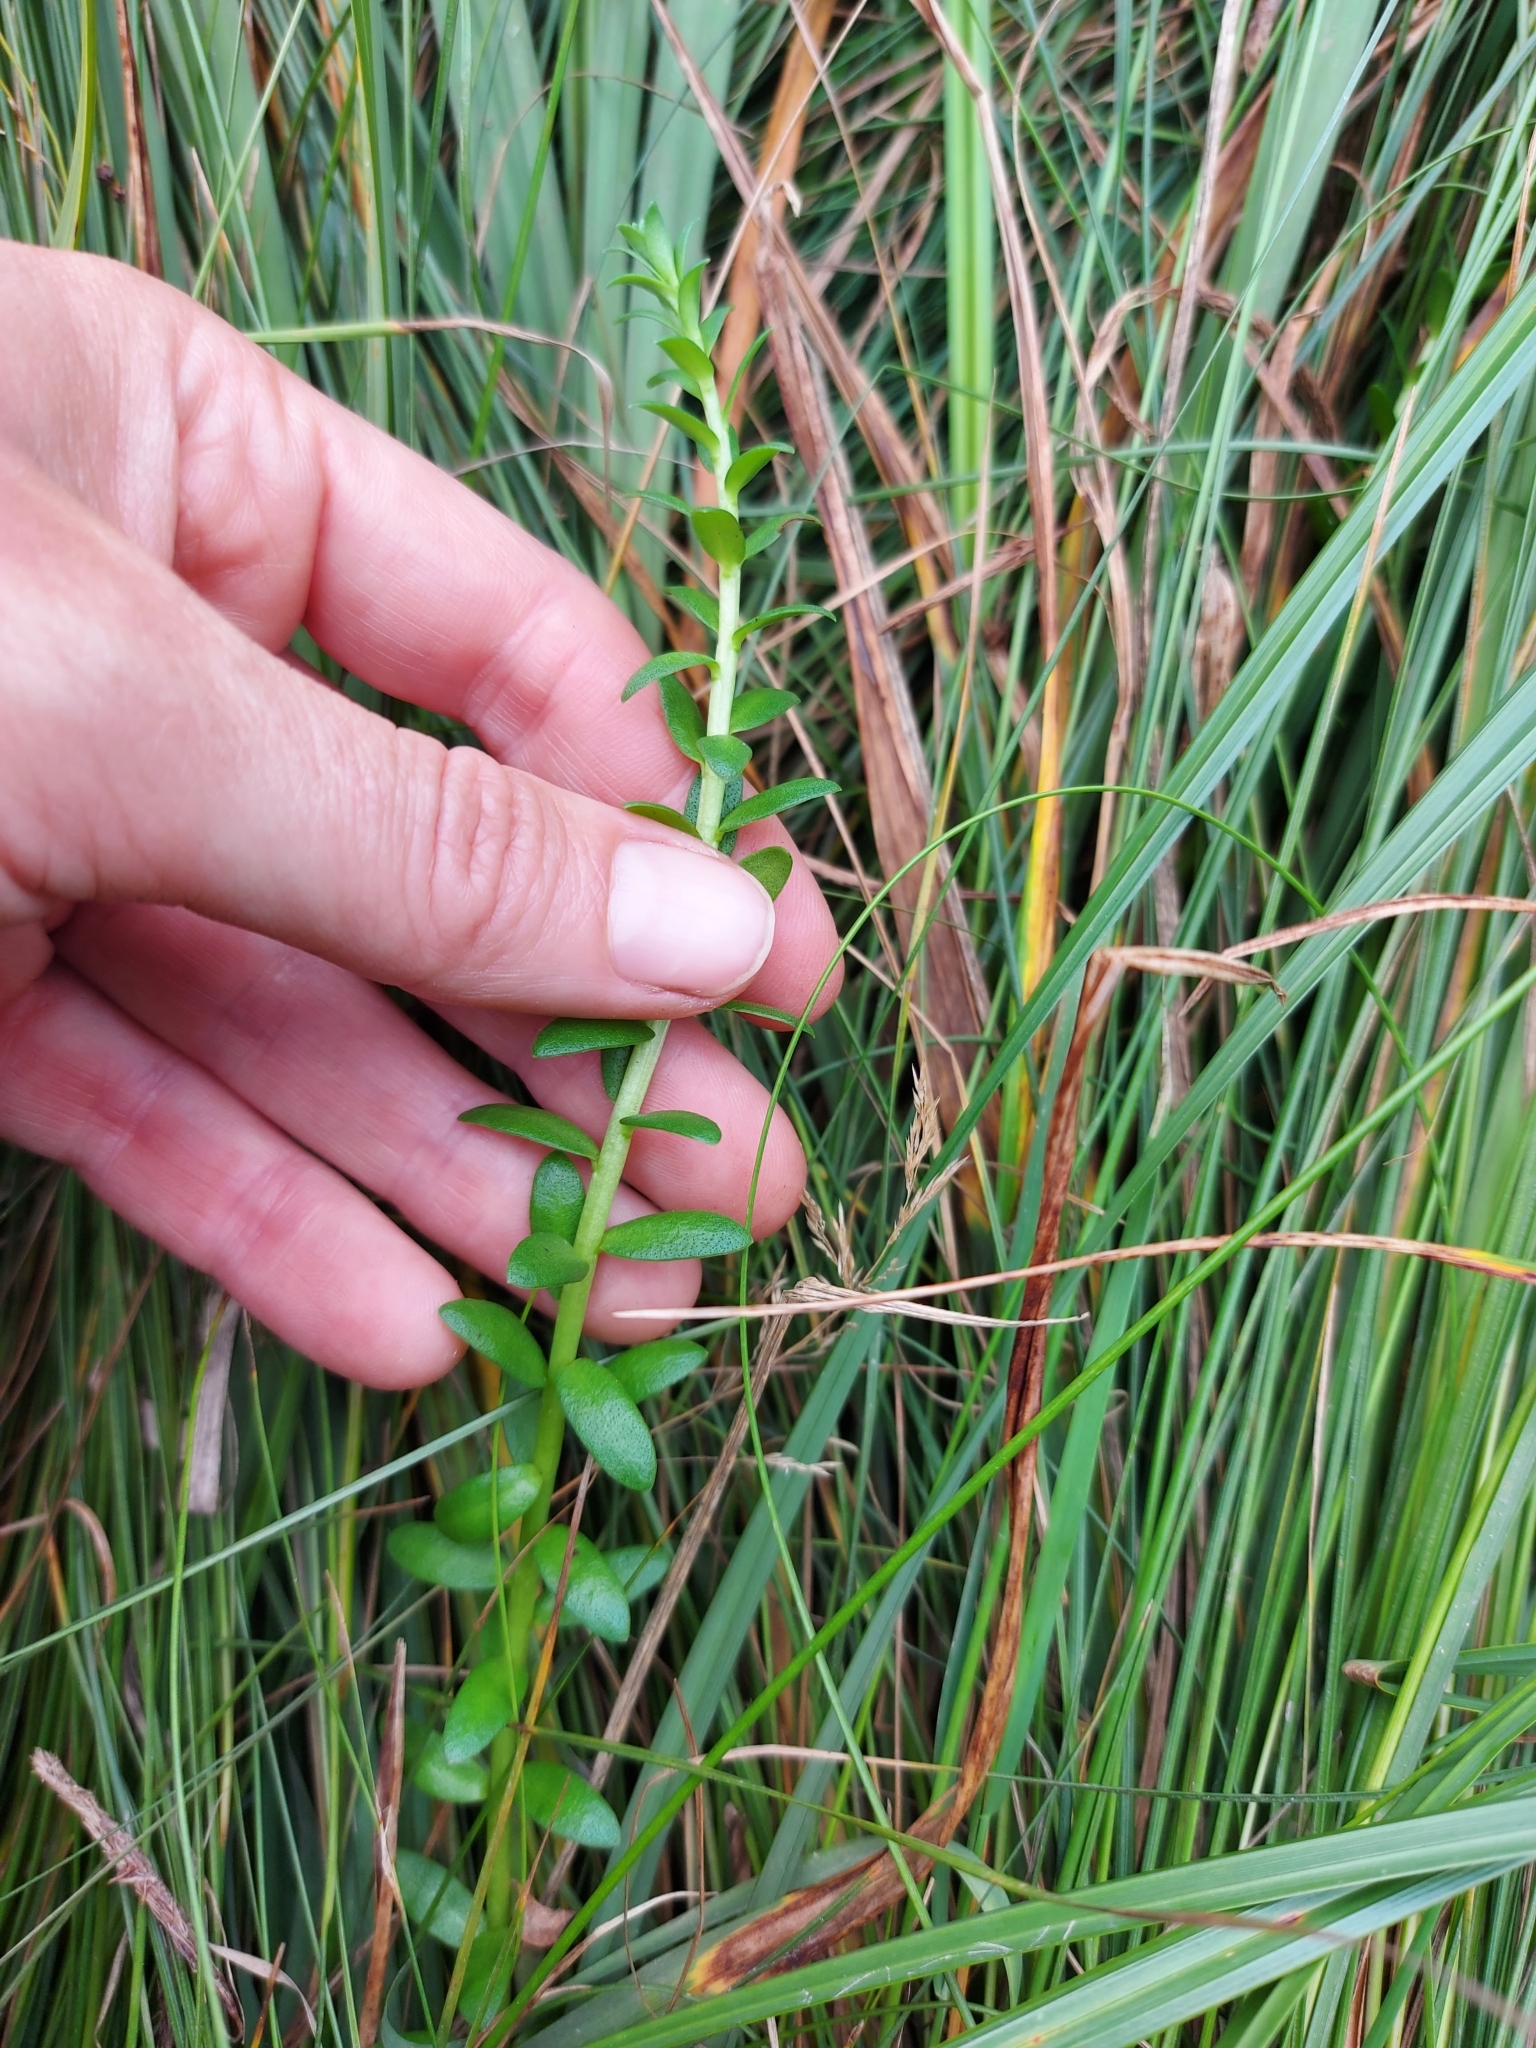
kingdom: Plantae
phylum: Tracheophyta
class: Magnoliopsida
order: Ericales
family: Primulaceae
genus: Lysimachia
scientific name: Lysimachia maritima
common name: Sea milkwort
